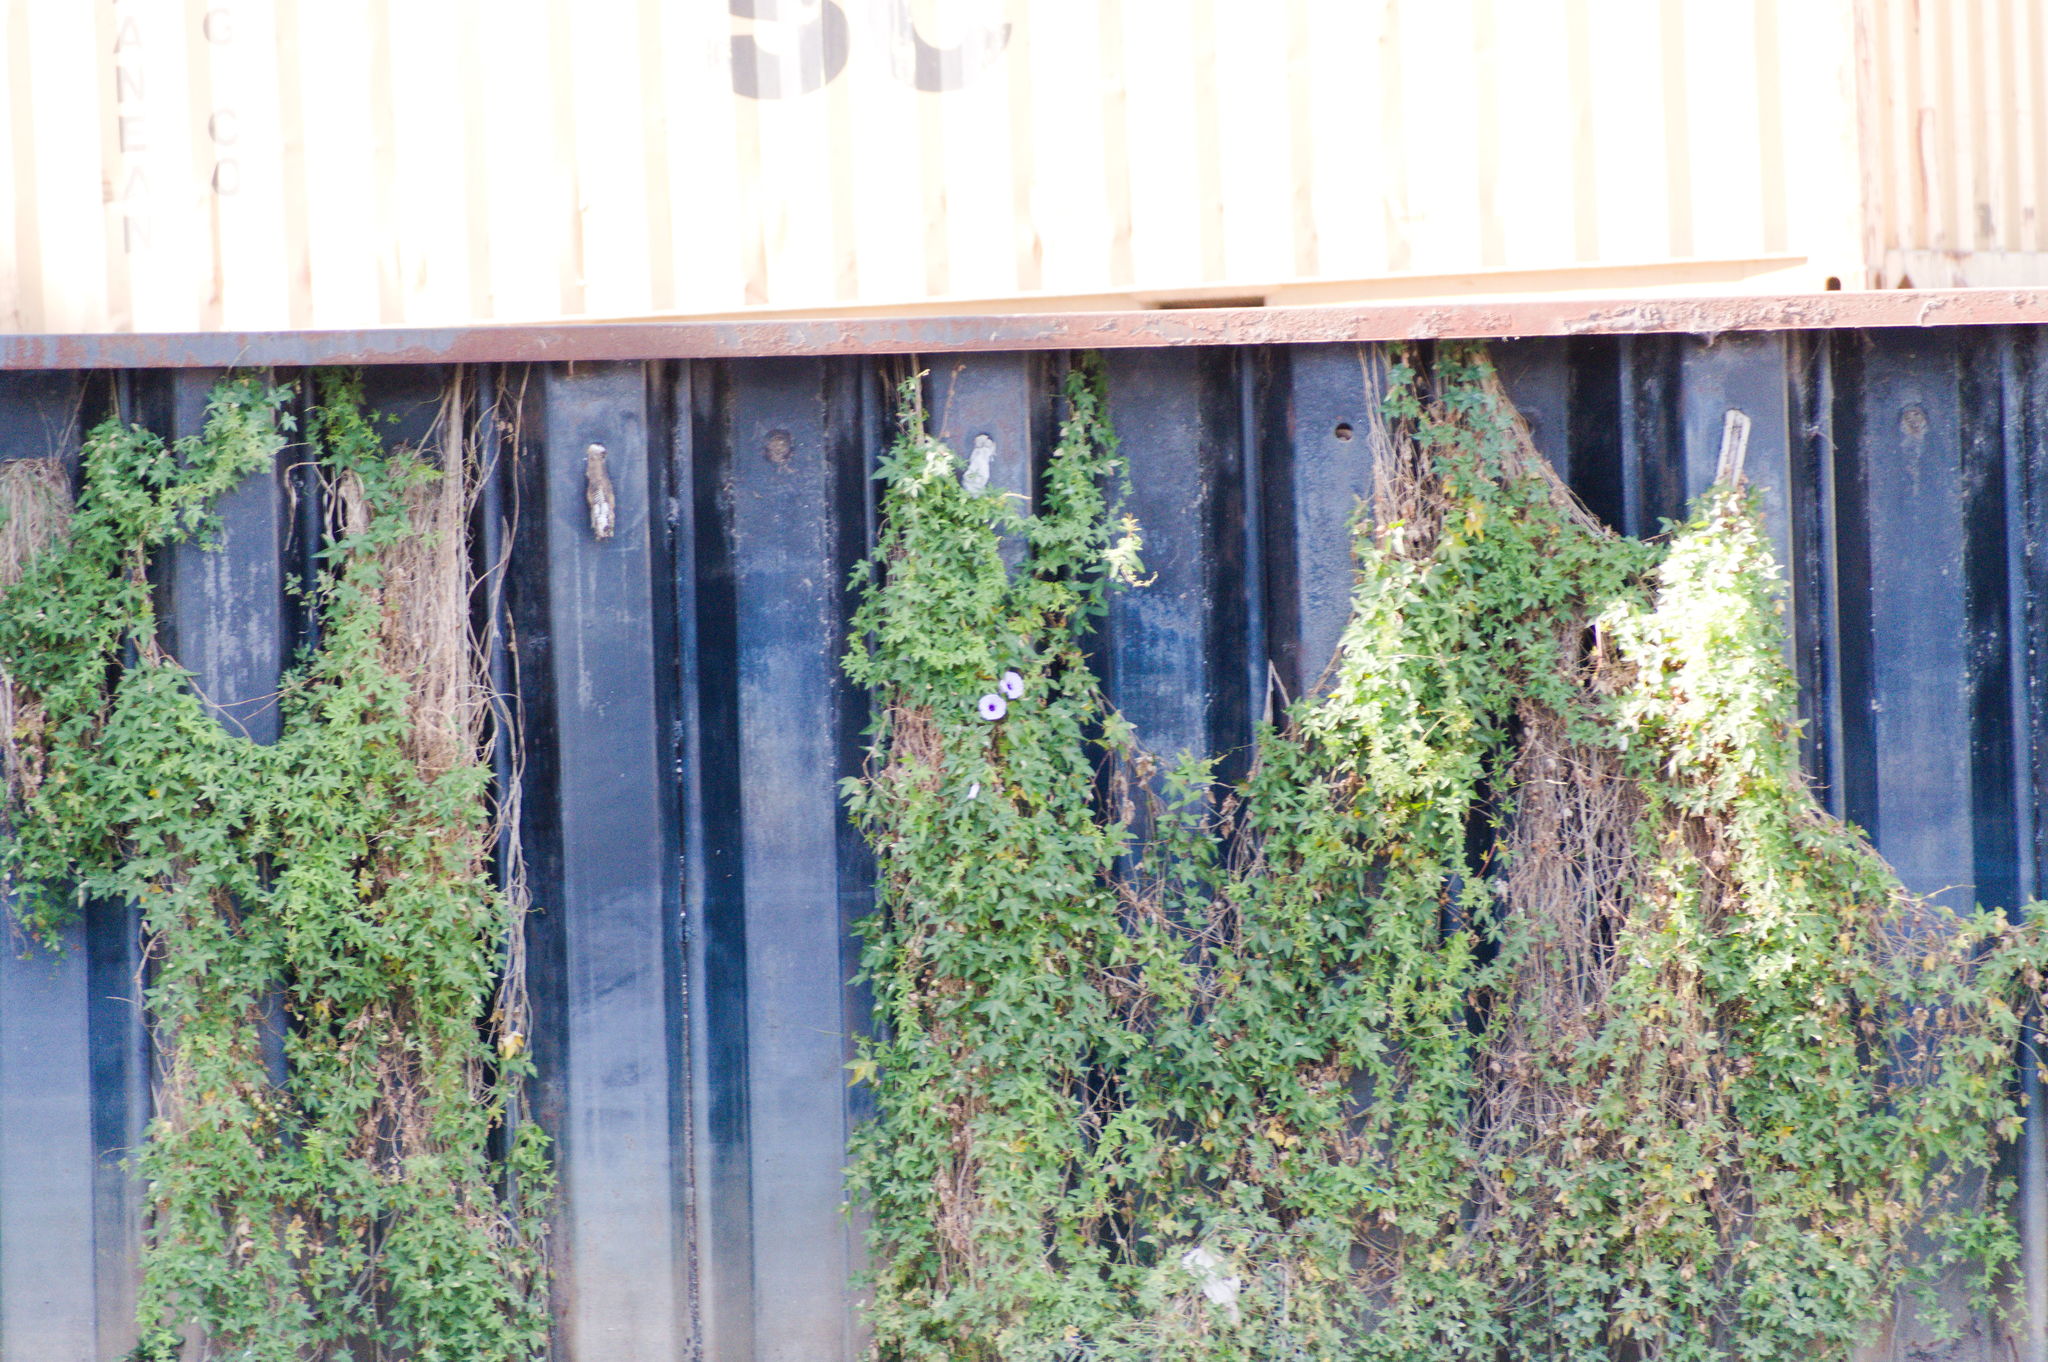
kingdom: Plantae
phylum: Tracheophyta
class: Magnoliopsida
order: Solanales
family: Convolvulaceae
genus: Ipomoea
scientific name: Ipomoea cairica
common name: Mile a minute vine
